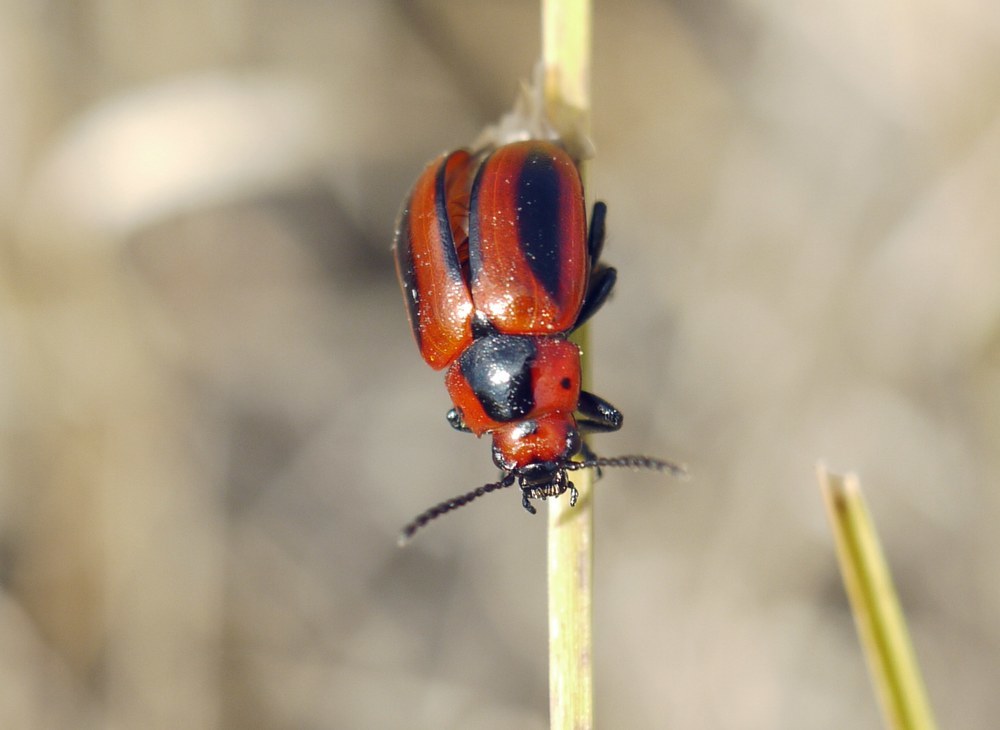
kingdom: Animalia
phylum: Arthropoda
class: Insecta
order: Coleoptera
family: Chrysomelidae
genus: Entomoscelis
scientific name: Entomoscelis adonidis
